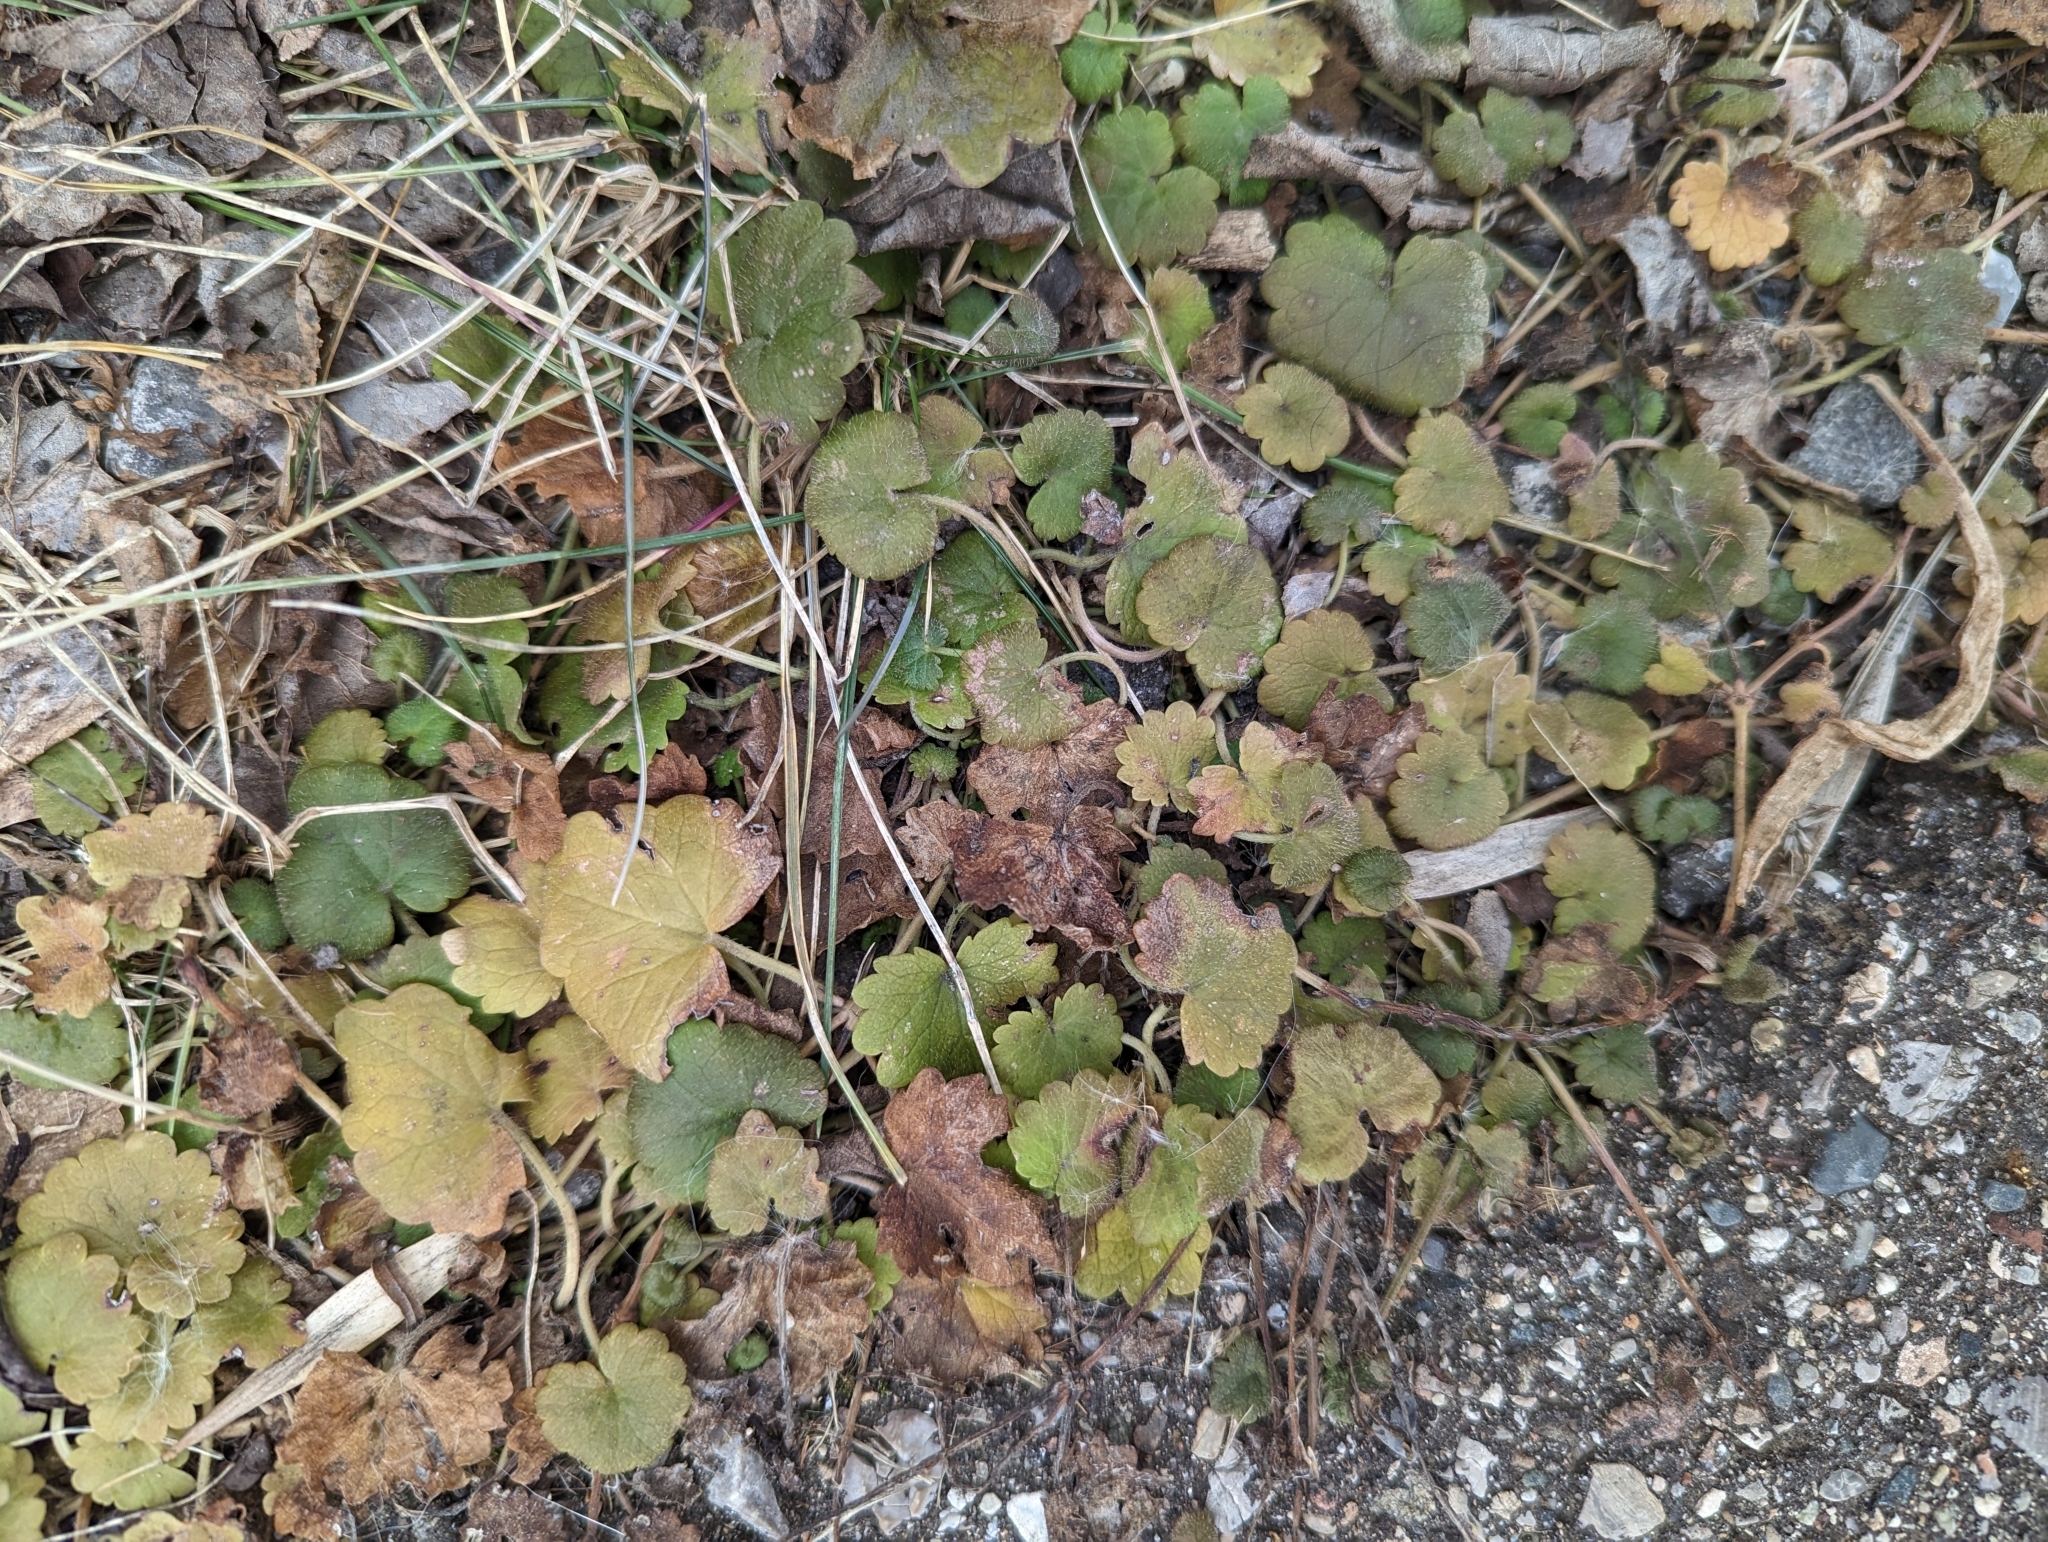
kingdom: Plantae
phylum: Tracheophyta
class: Magnoliopsida
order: Lamiales
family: Lamiaceae
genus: Glechoma
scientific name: Glechoma hederacea
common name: Ground ivy
